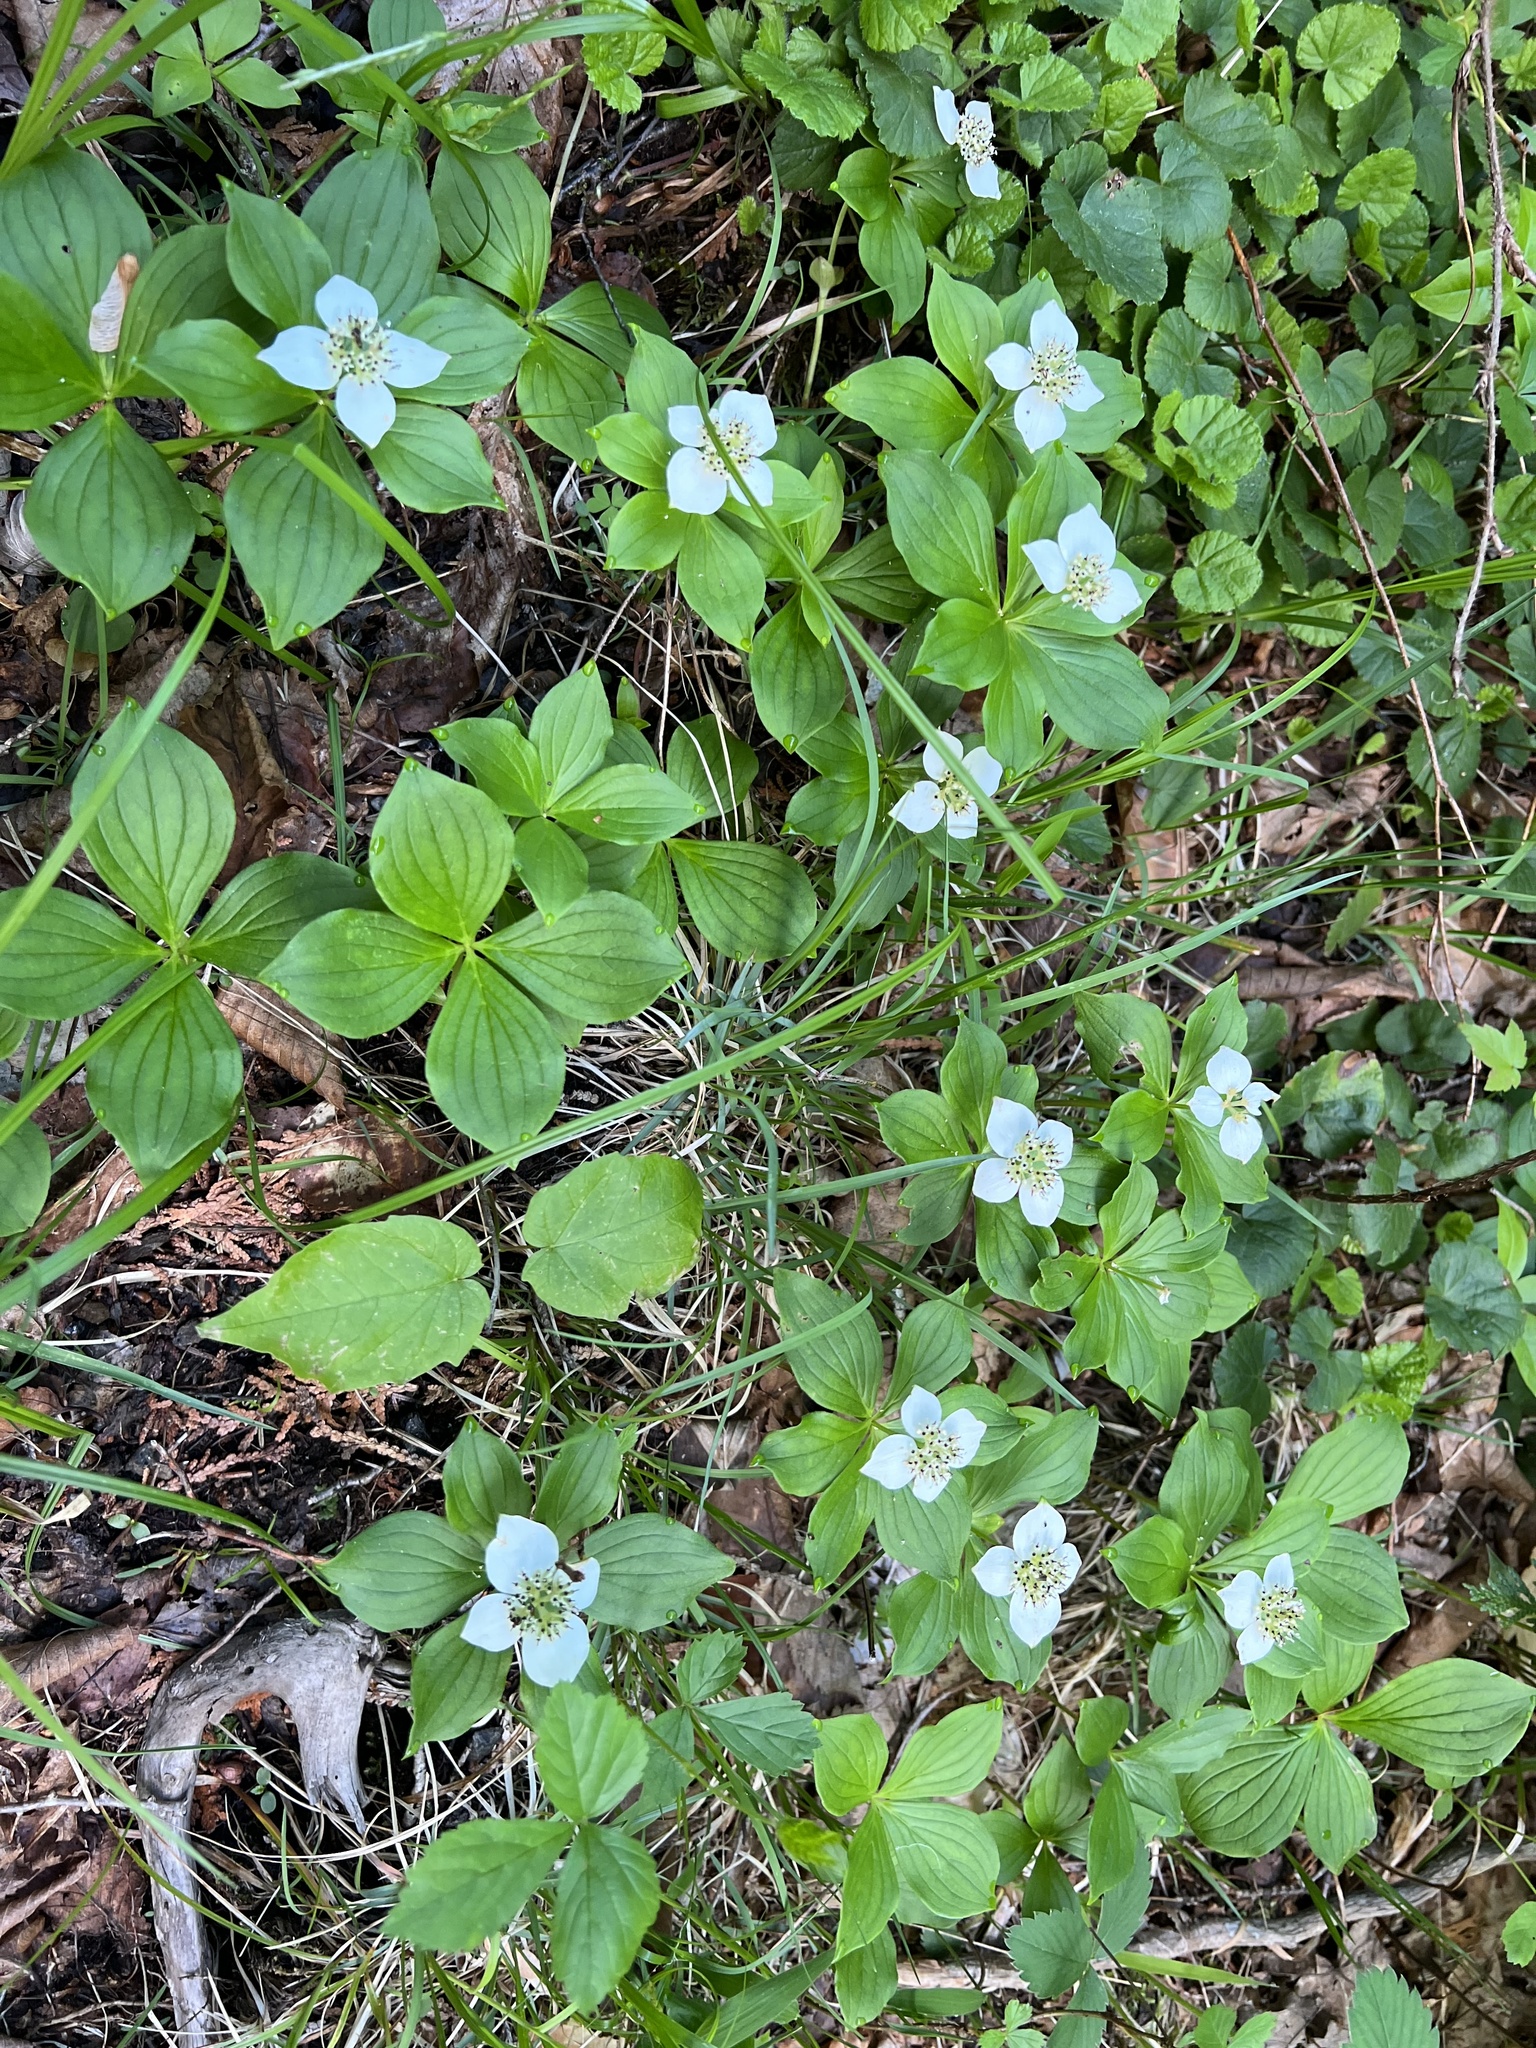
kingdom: Plantae
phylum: Tracheophyta
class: Magnoliopsida
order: Cornales
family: Cornaceae
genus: Cornus
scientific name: Cornus canadensis
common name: Creeping dogwood
